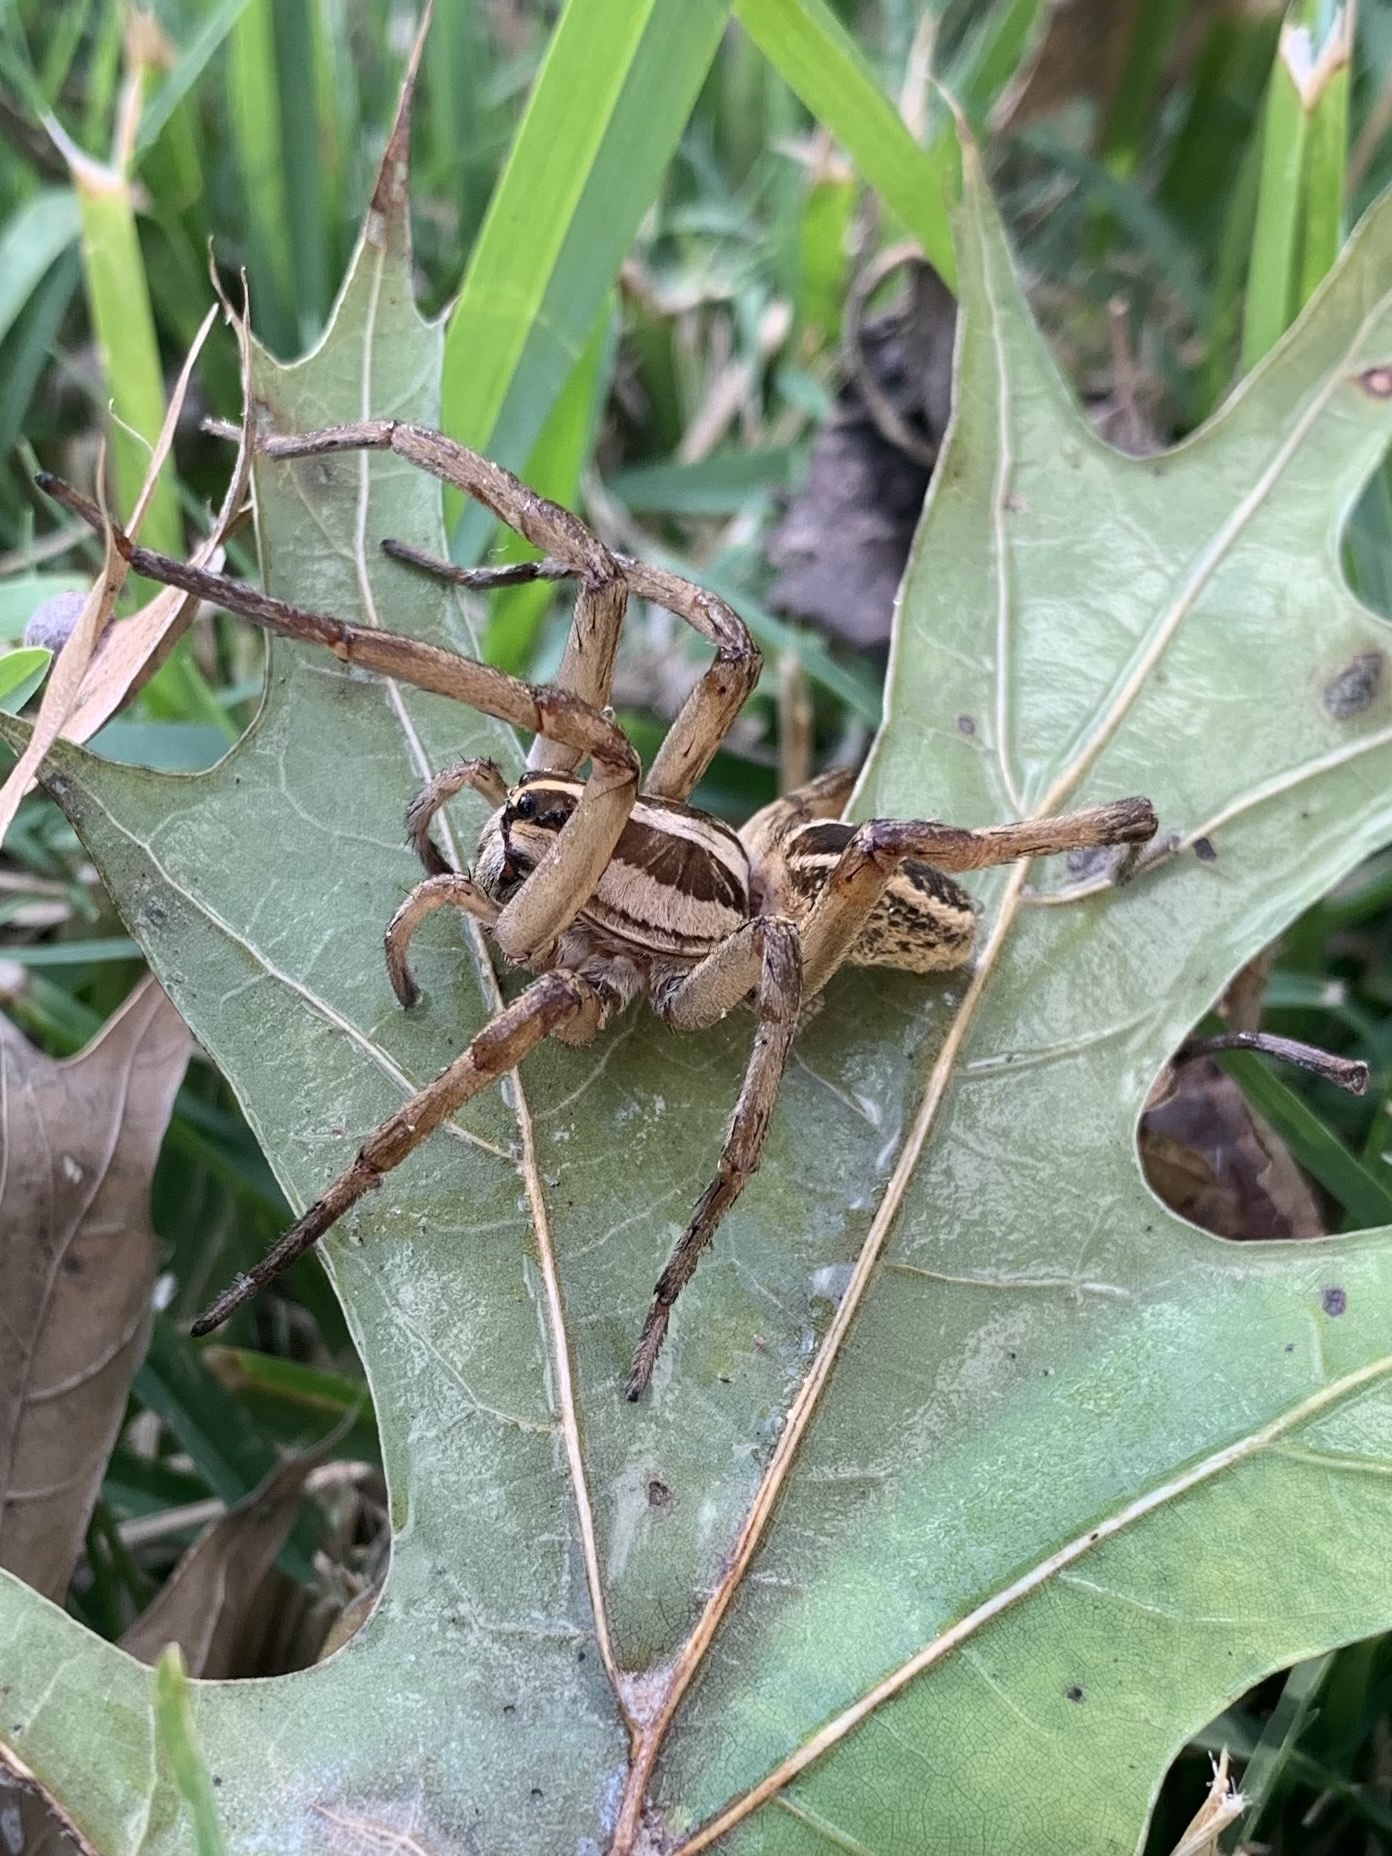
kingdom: Animalia
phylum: Arthropoda
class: Arachnida
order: Araneae
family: Lycosidae
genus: Rabidosa
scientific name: Rabidosa rabida
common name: Rabid wolf spider
